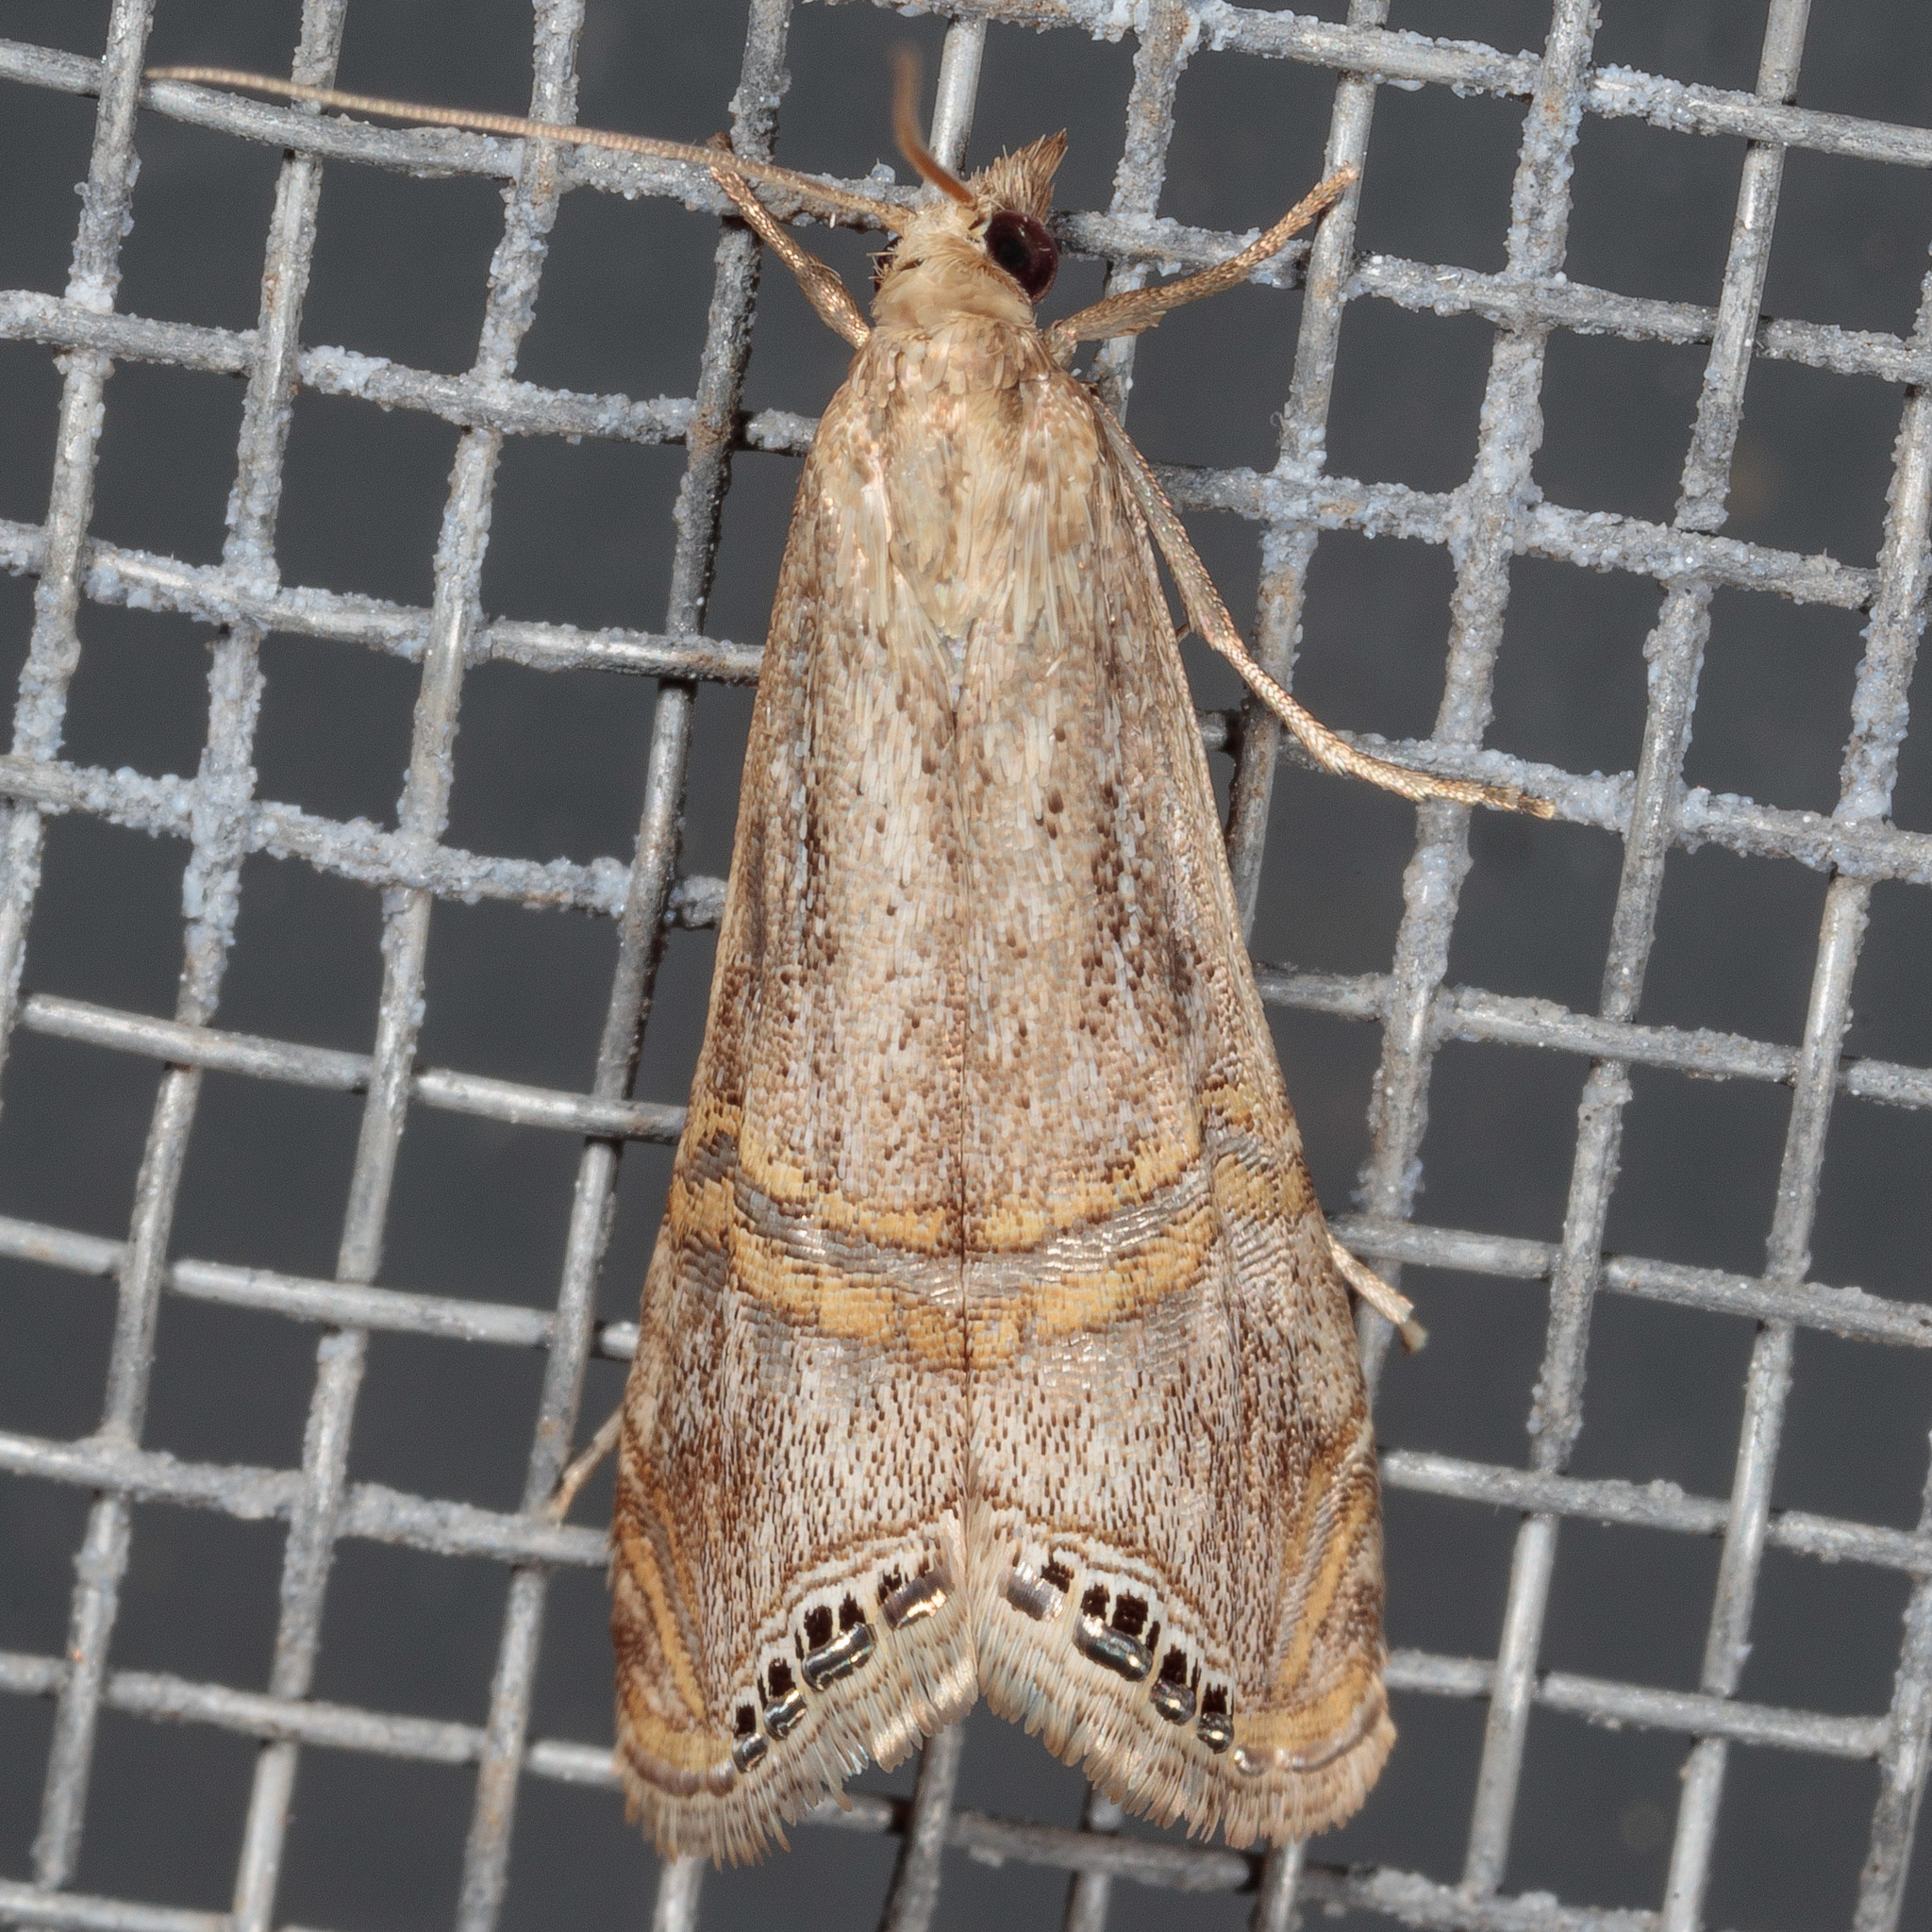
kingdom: Animalia
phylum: Arthropoda
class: Insecta
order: Lepidoptera
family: Crambidae
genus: Euchromius
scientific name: Euchromius ocellea
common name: Necklace veneer moth
